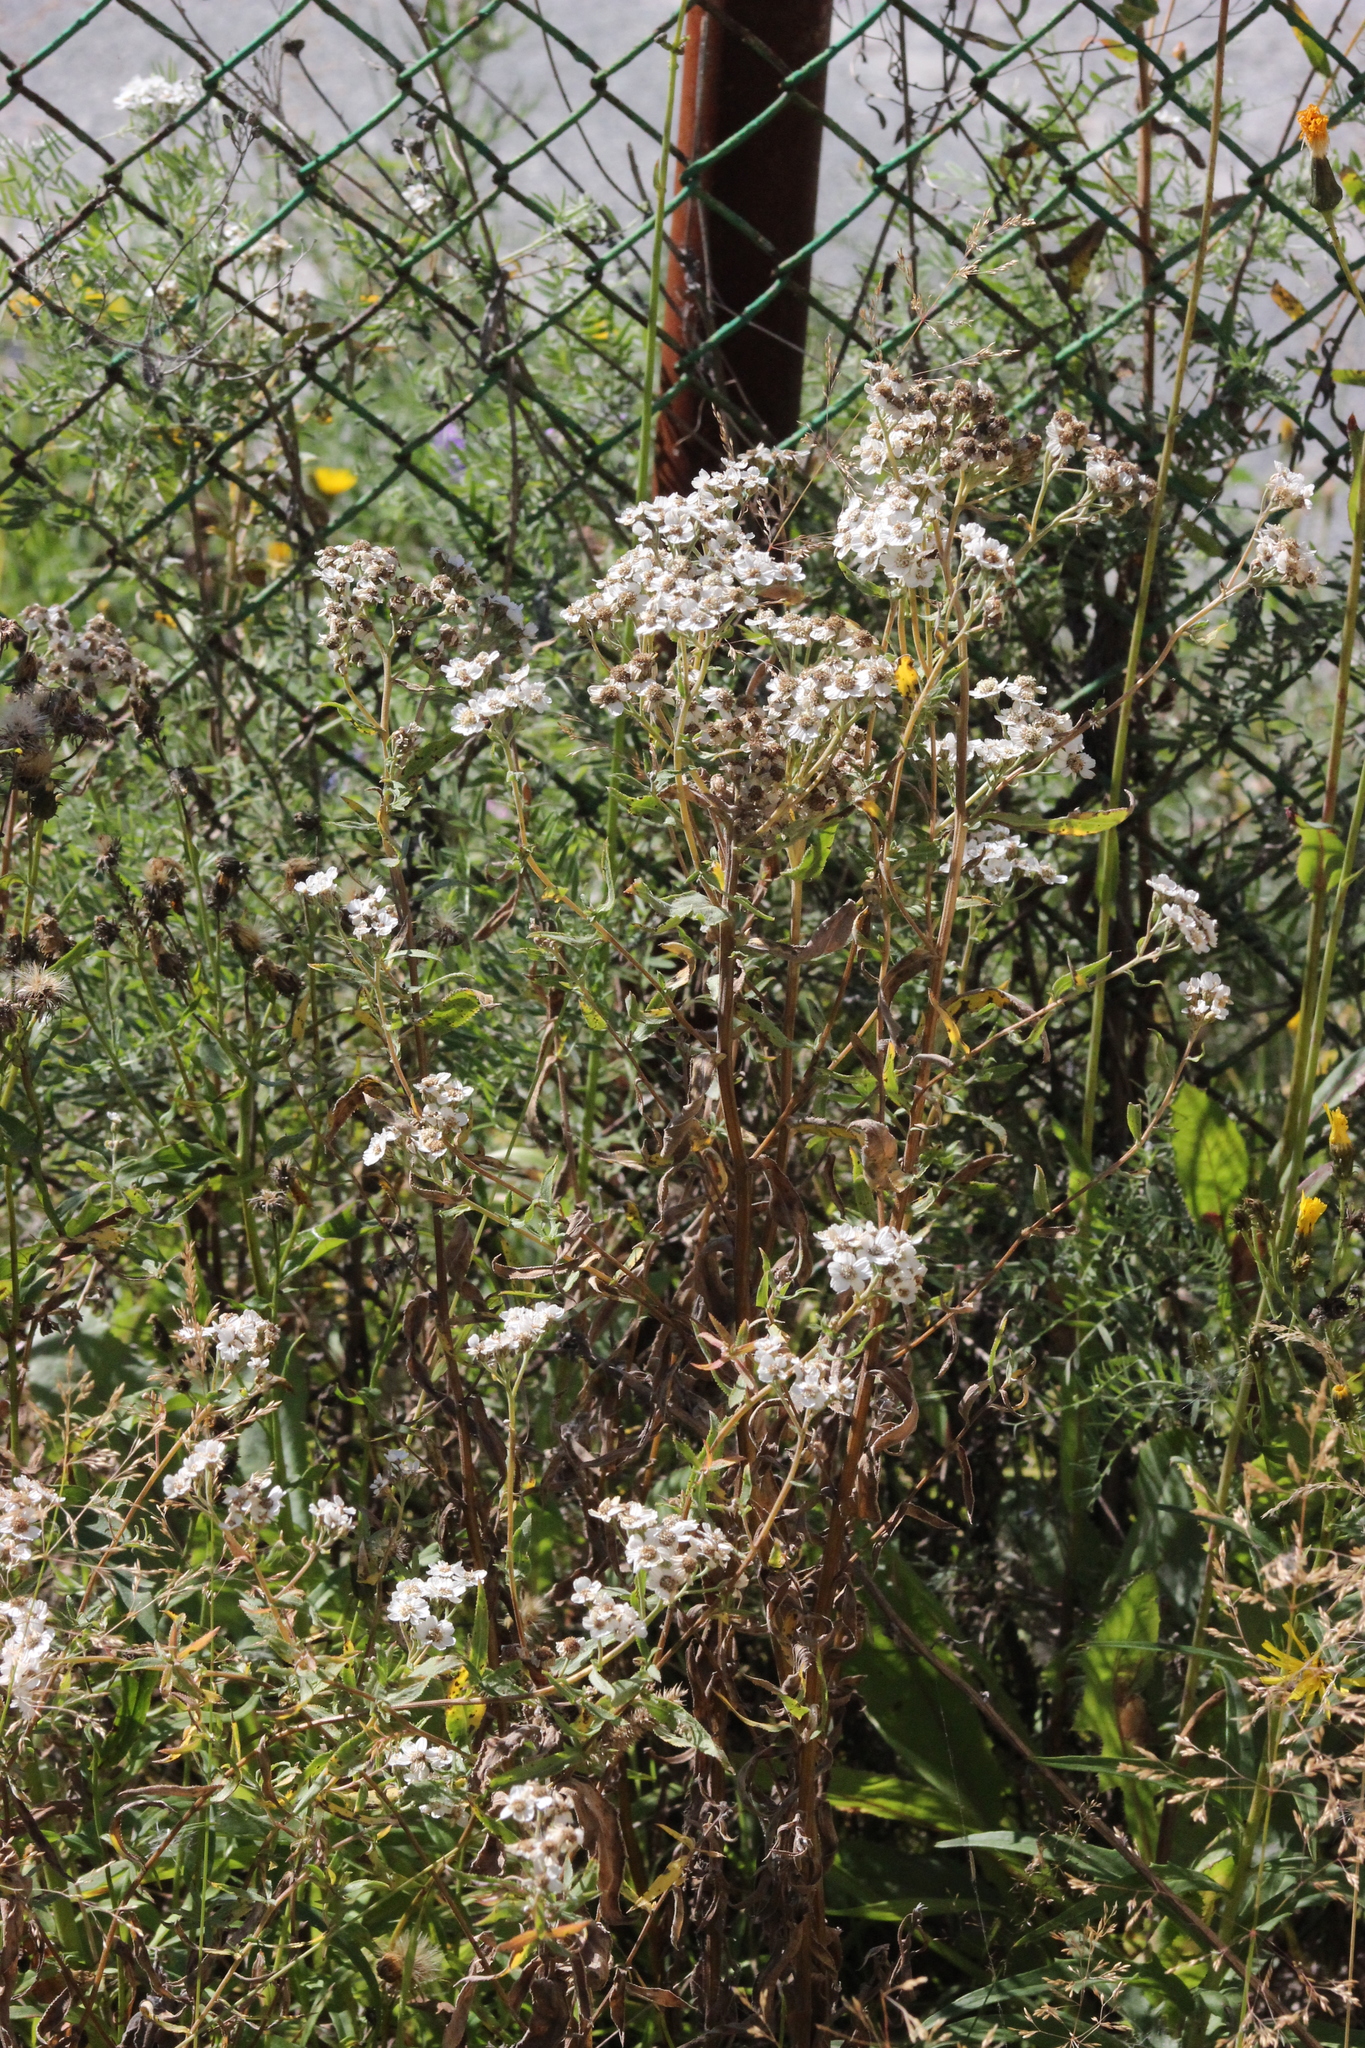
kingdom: Plantae
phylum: Tracheophyta
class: Magnoliopsida
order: Asterales
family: Asteraceae
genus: Achillea
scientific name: Achillea salicifolia
